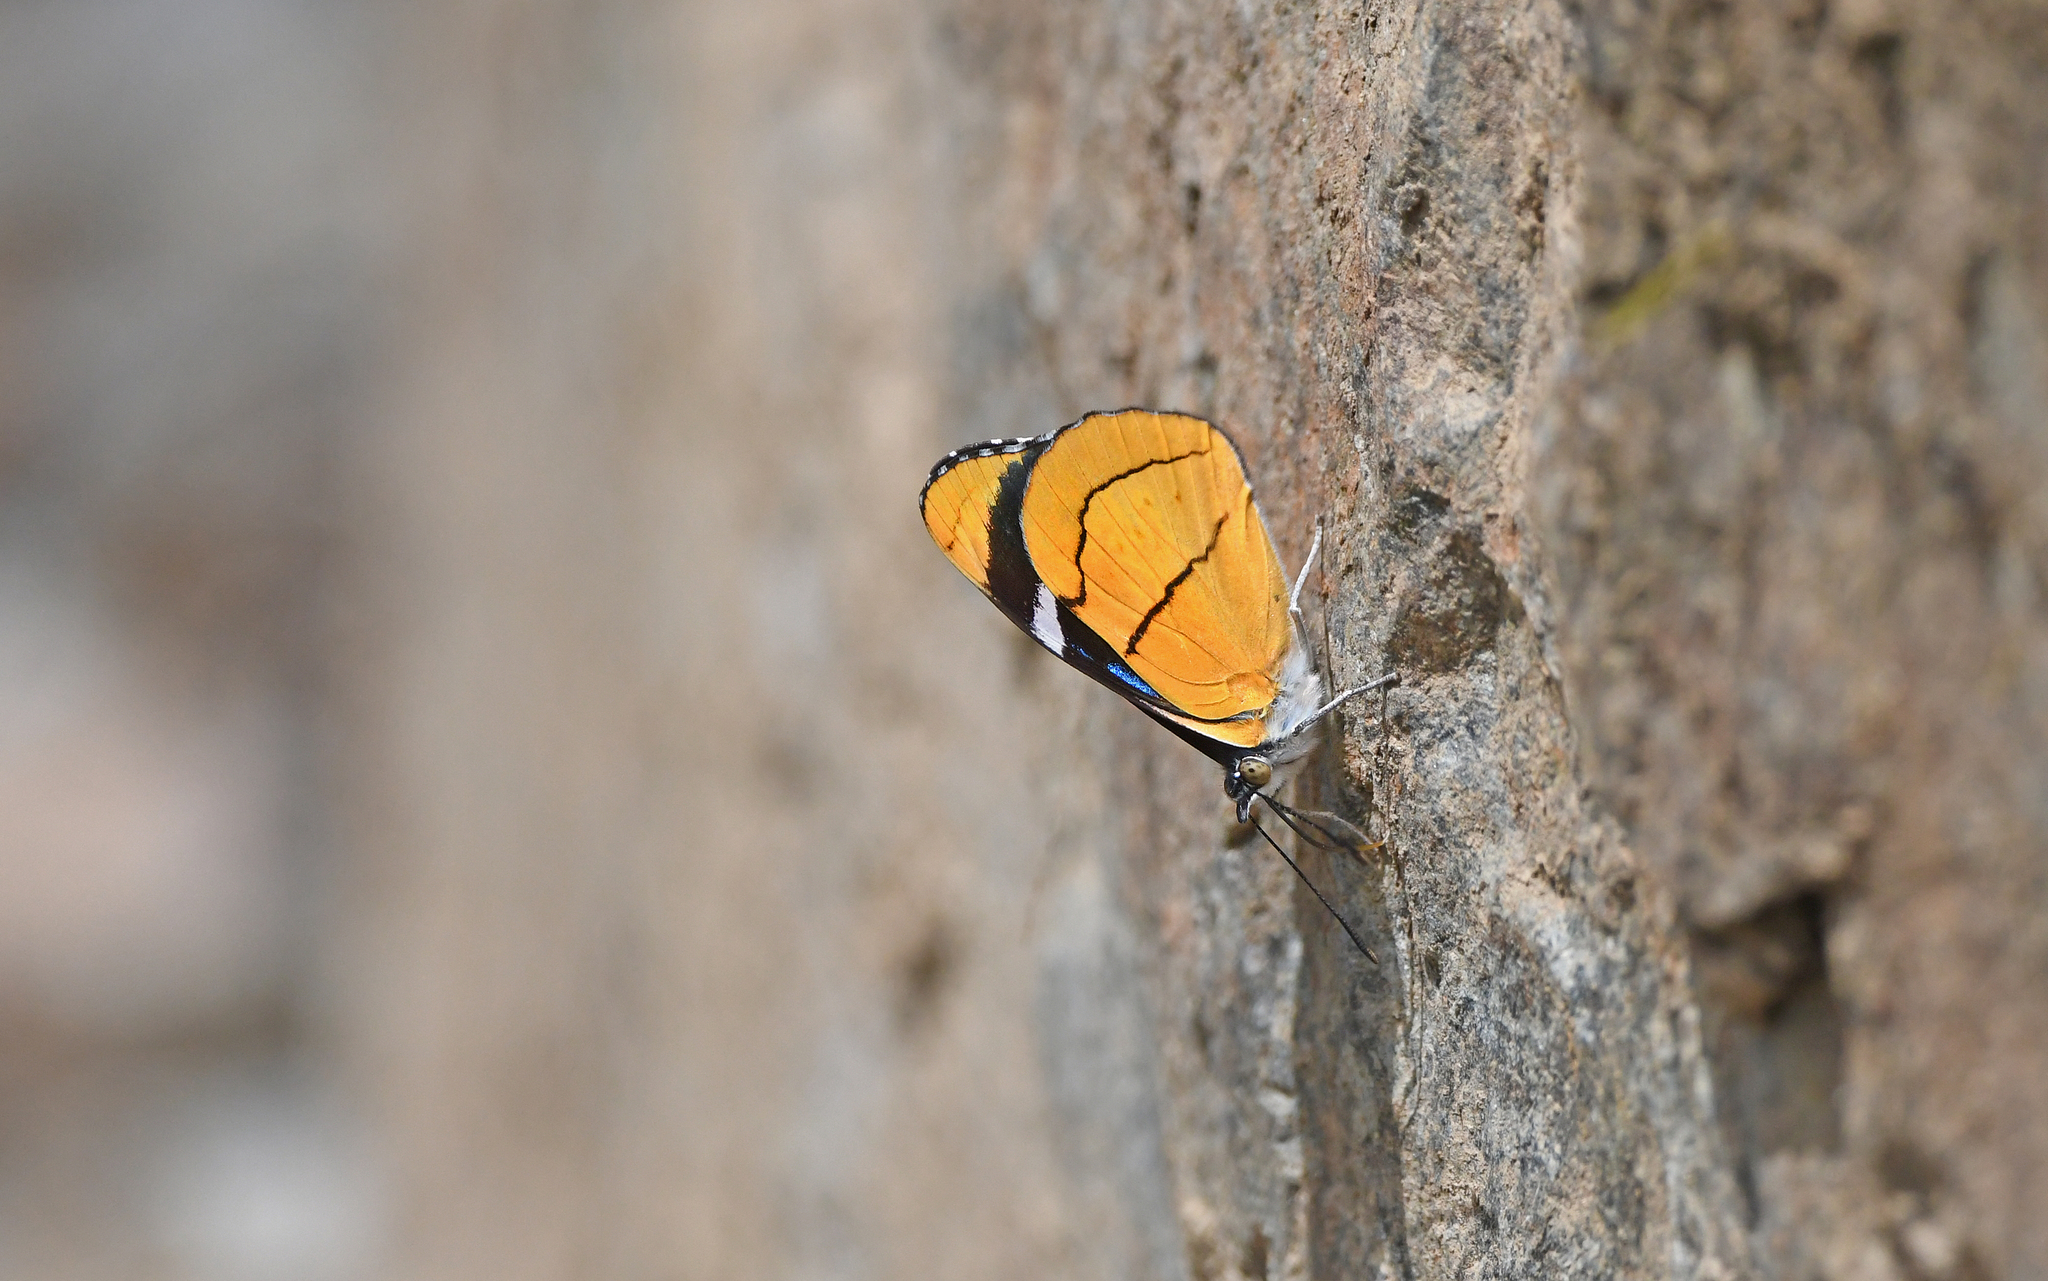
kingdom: Animalia
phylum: Arthropoda
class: Insecta
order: Lepidoptera
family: Nymphalidae
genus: Perisama
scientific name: Perisama comnena
